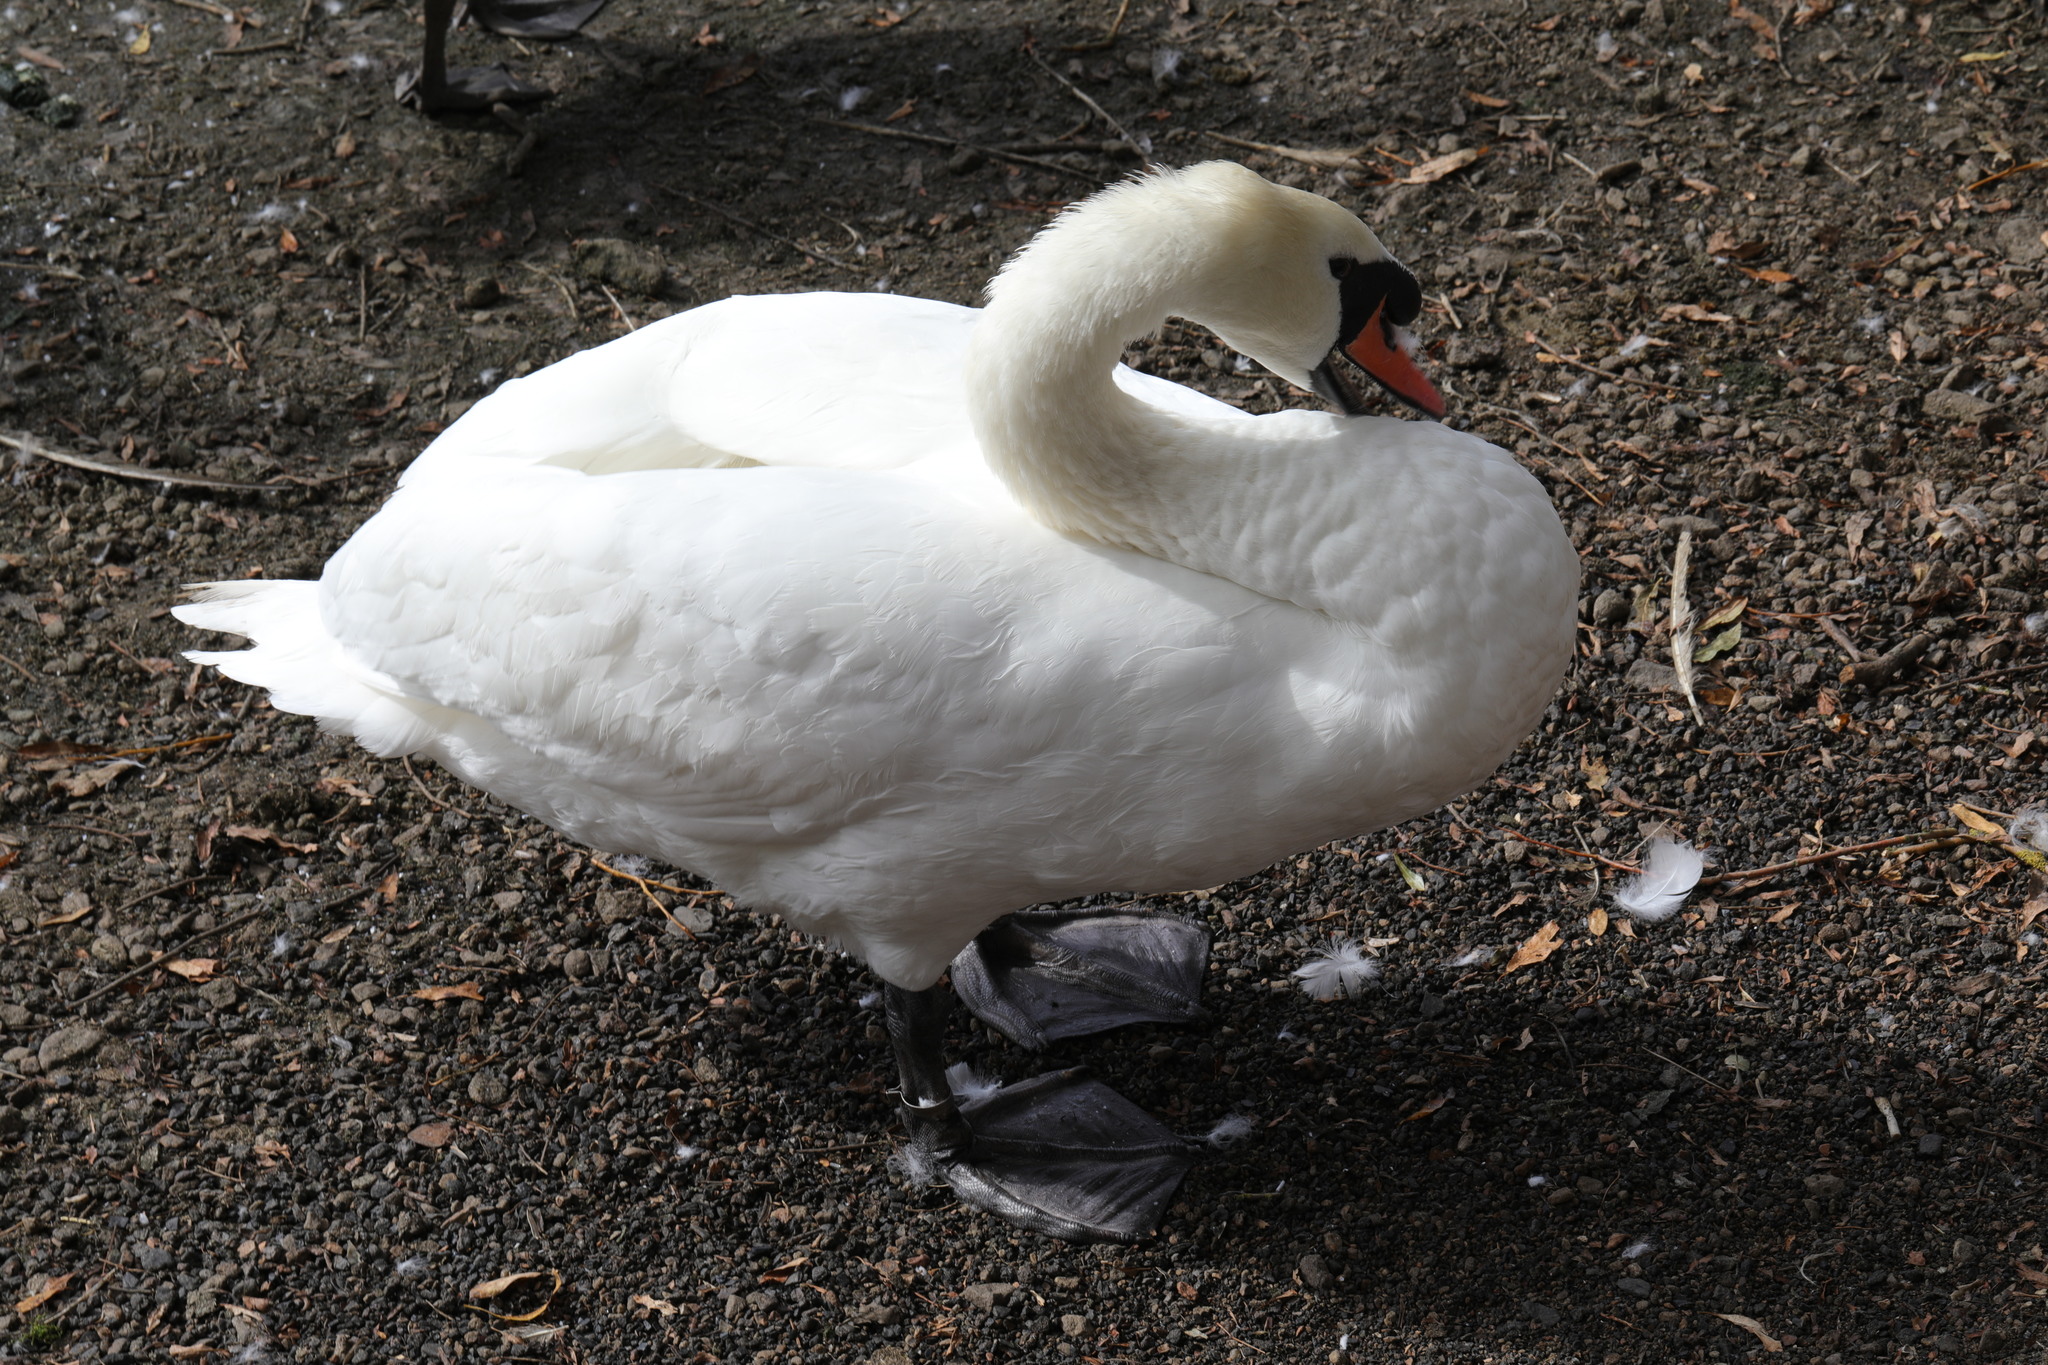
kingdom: Animalia
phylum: Chordata
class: Aves
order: Anseriformes
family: Anatidae
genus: Cygnus
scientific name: Cygnus olor
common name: Mute swan
